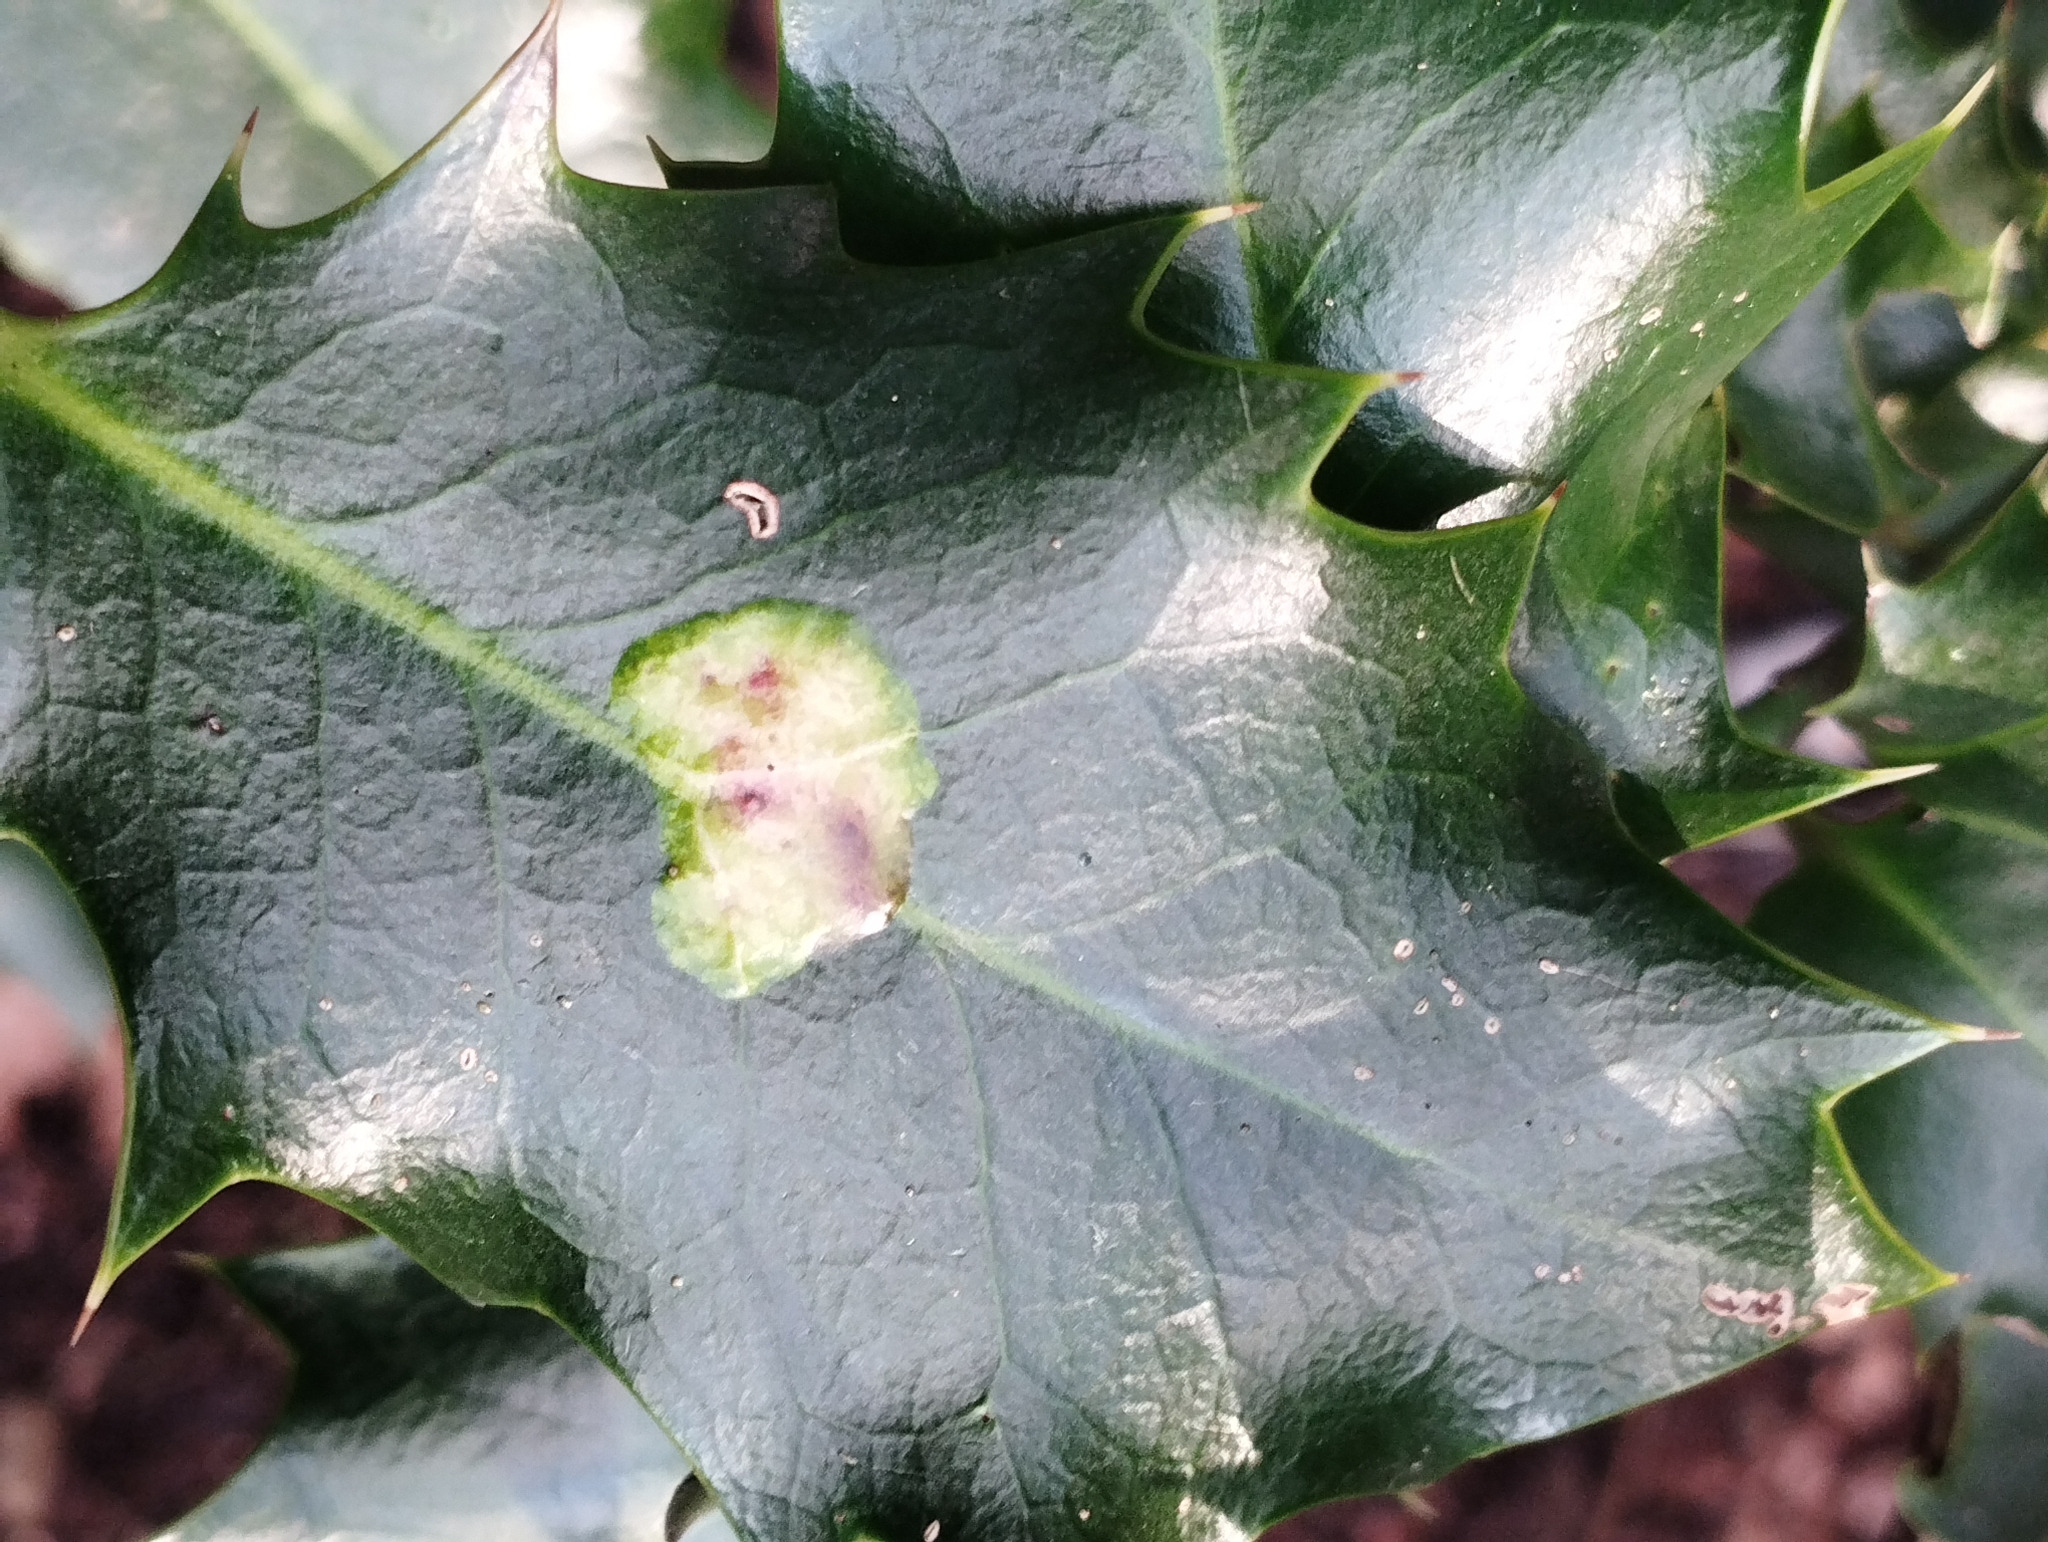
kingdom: Animalia
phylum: Arthropoda
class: Insecta
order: Diptera
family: Agromyzidae
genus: Phytomyza
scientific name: Phytomyza ilicis
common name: Holly leafminer
